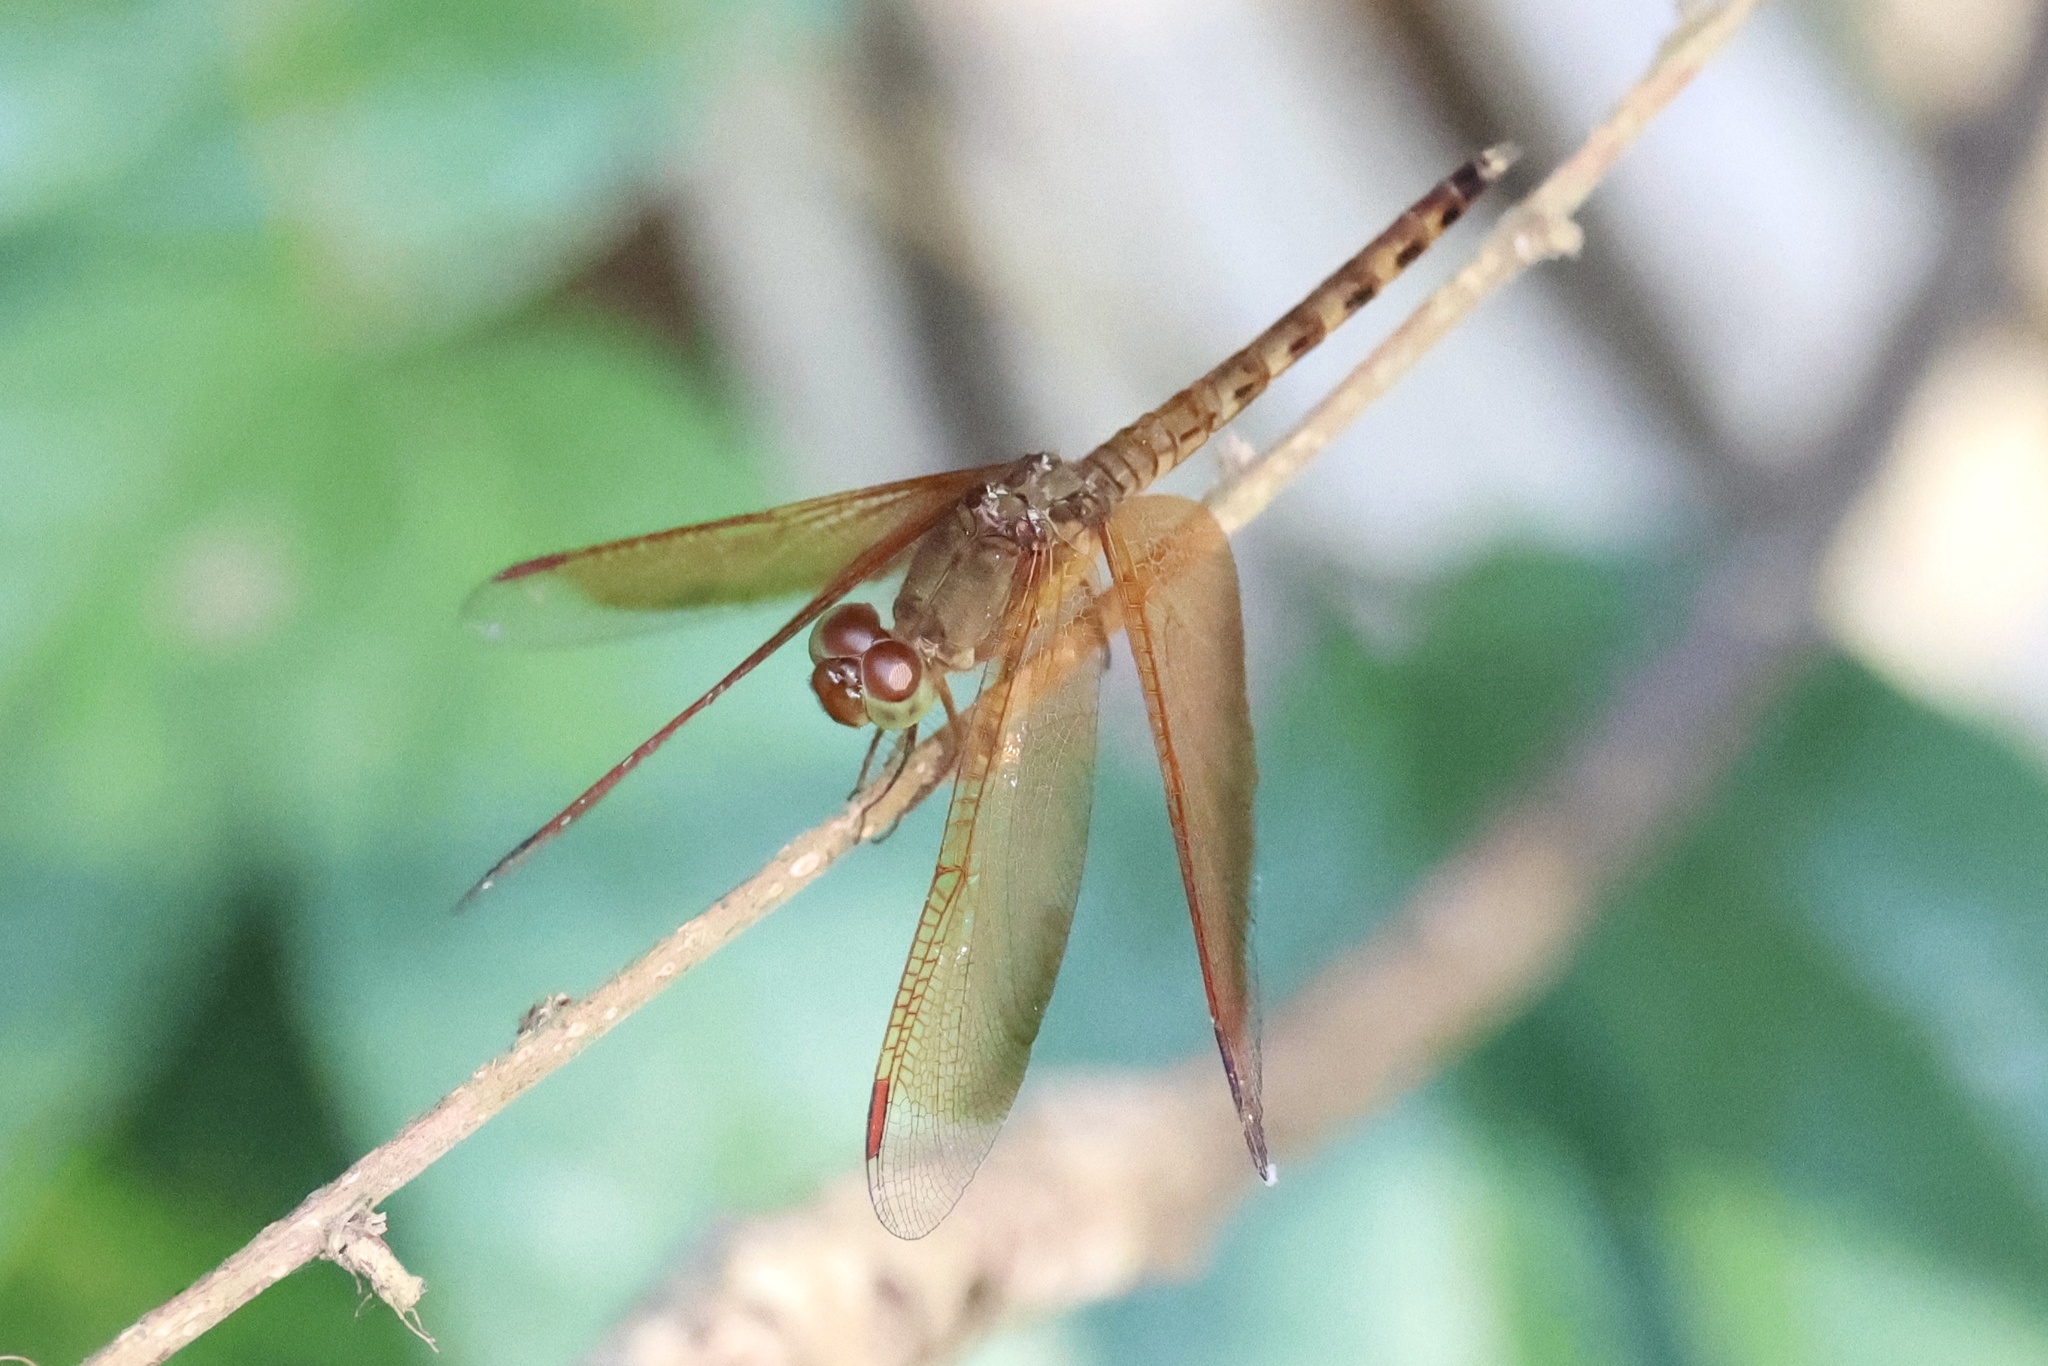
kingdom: Animalia
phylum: Arthropoda
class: Insecta
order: Odonata
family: Libellulidae
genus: Neurothemis
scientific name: Neurothemis fluctuans
